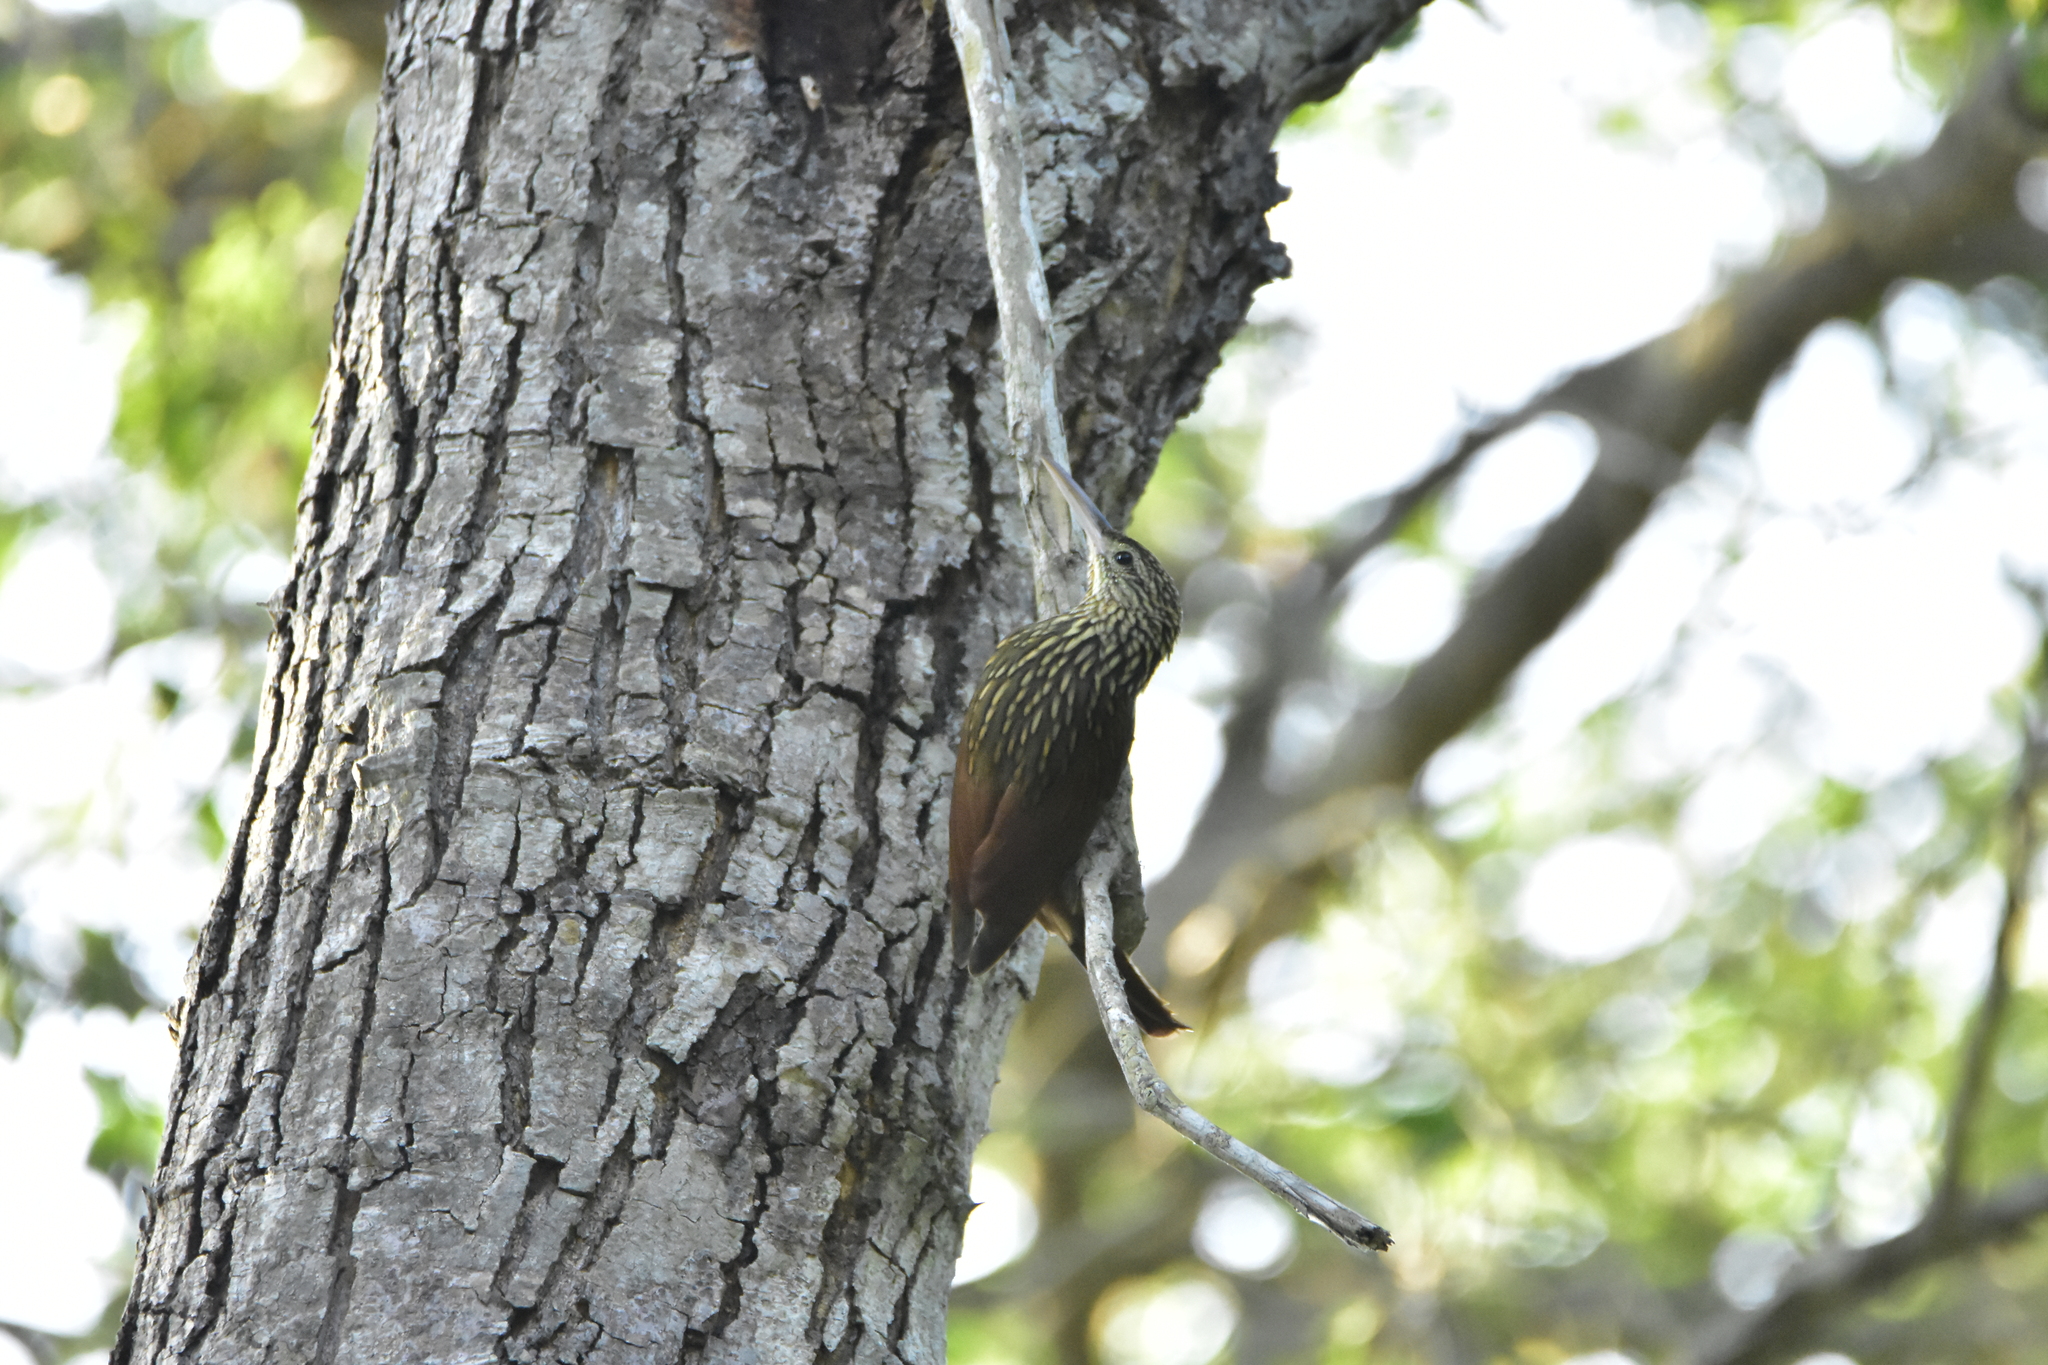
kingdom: Animalia
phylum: Chordata
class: Aves
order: Passeriformes
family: Furnariidae
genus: Xiphorhynchus
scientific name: Xiphorhynchus flavigaster
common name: Ivory-billed woodcreeper
